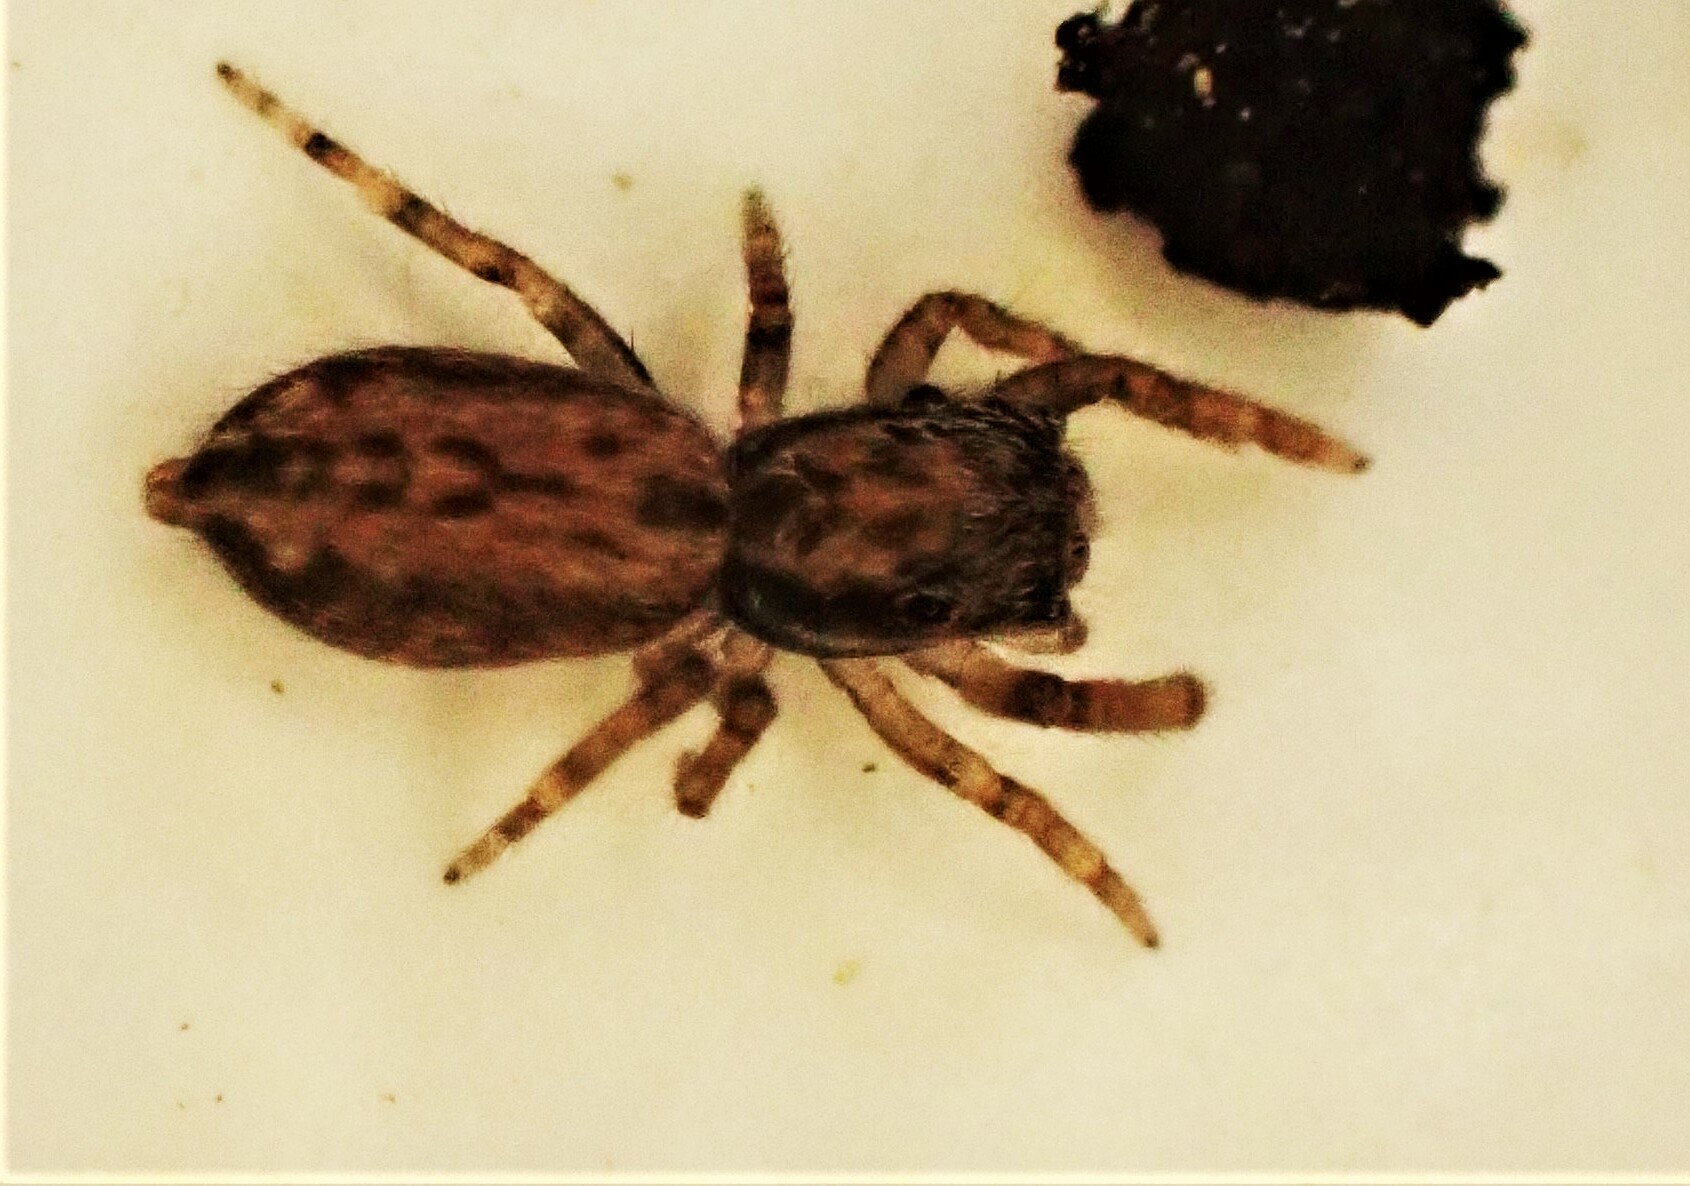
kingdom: Animalia
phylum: Arthropoda
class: Arachnida
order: Araneae
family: Salticidae
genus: Trite
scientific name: Trite auricoma
